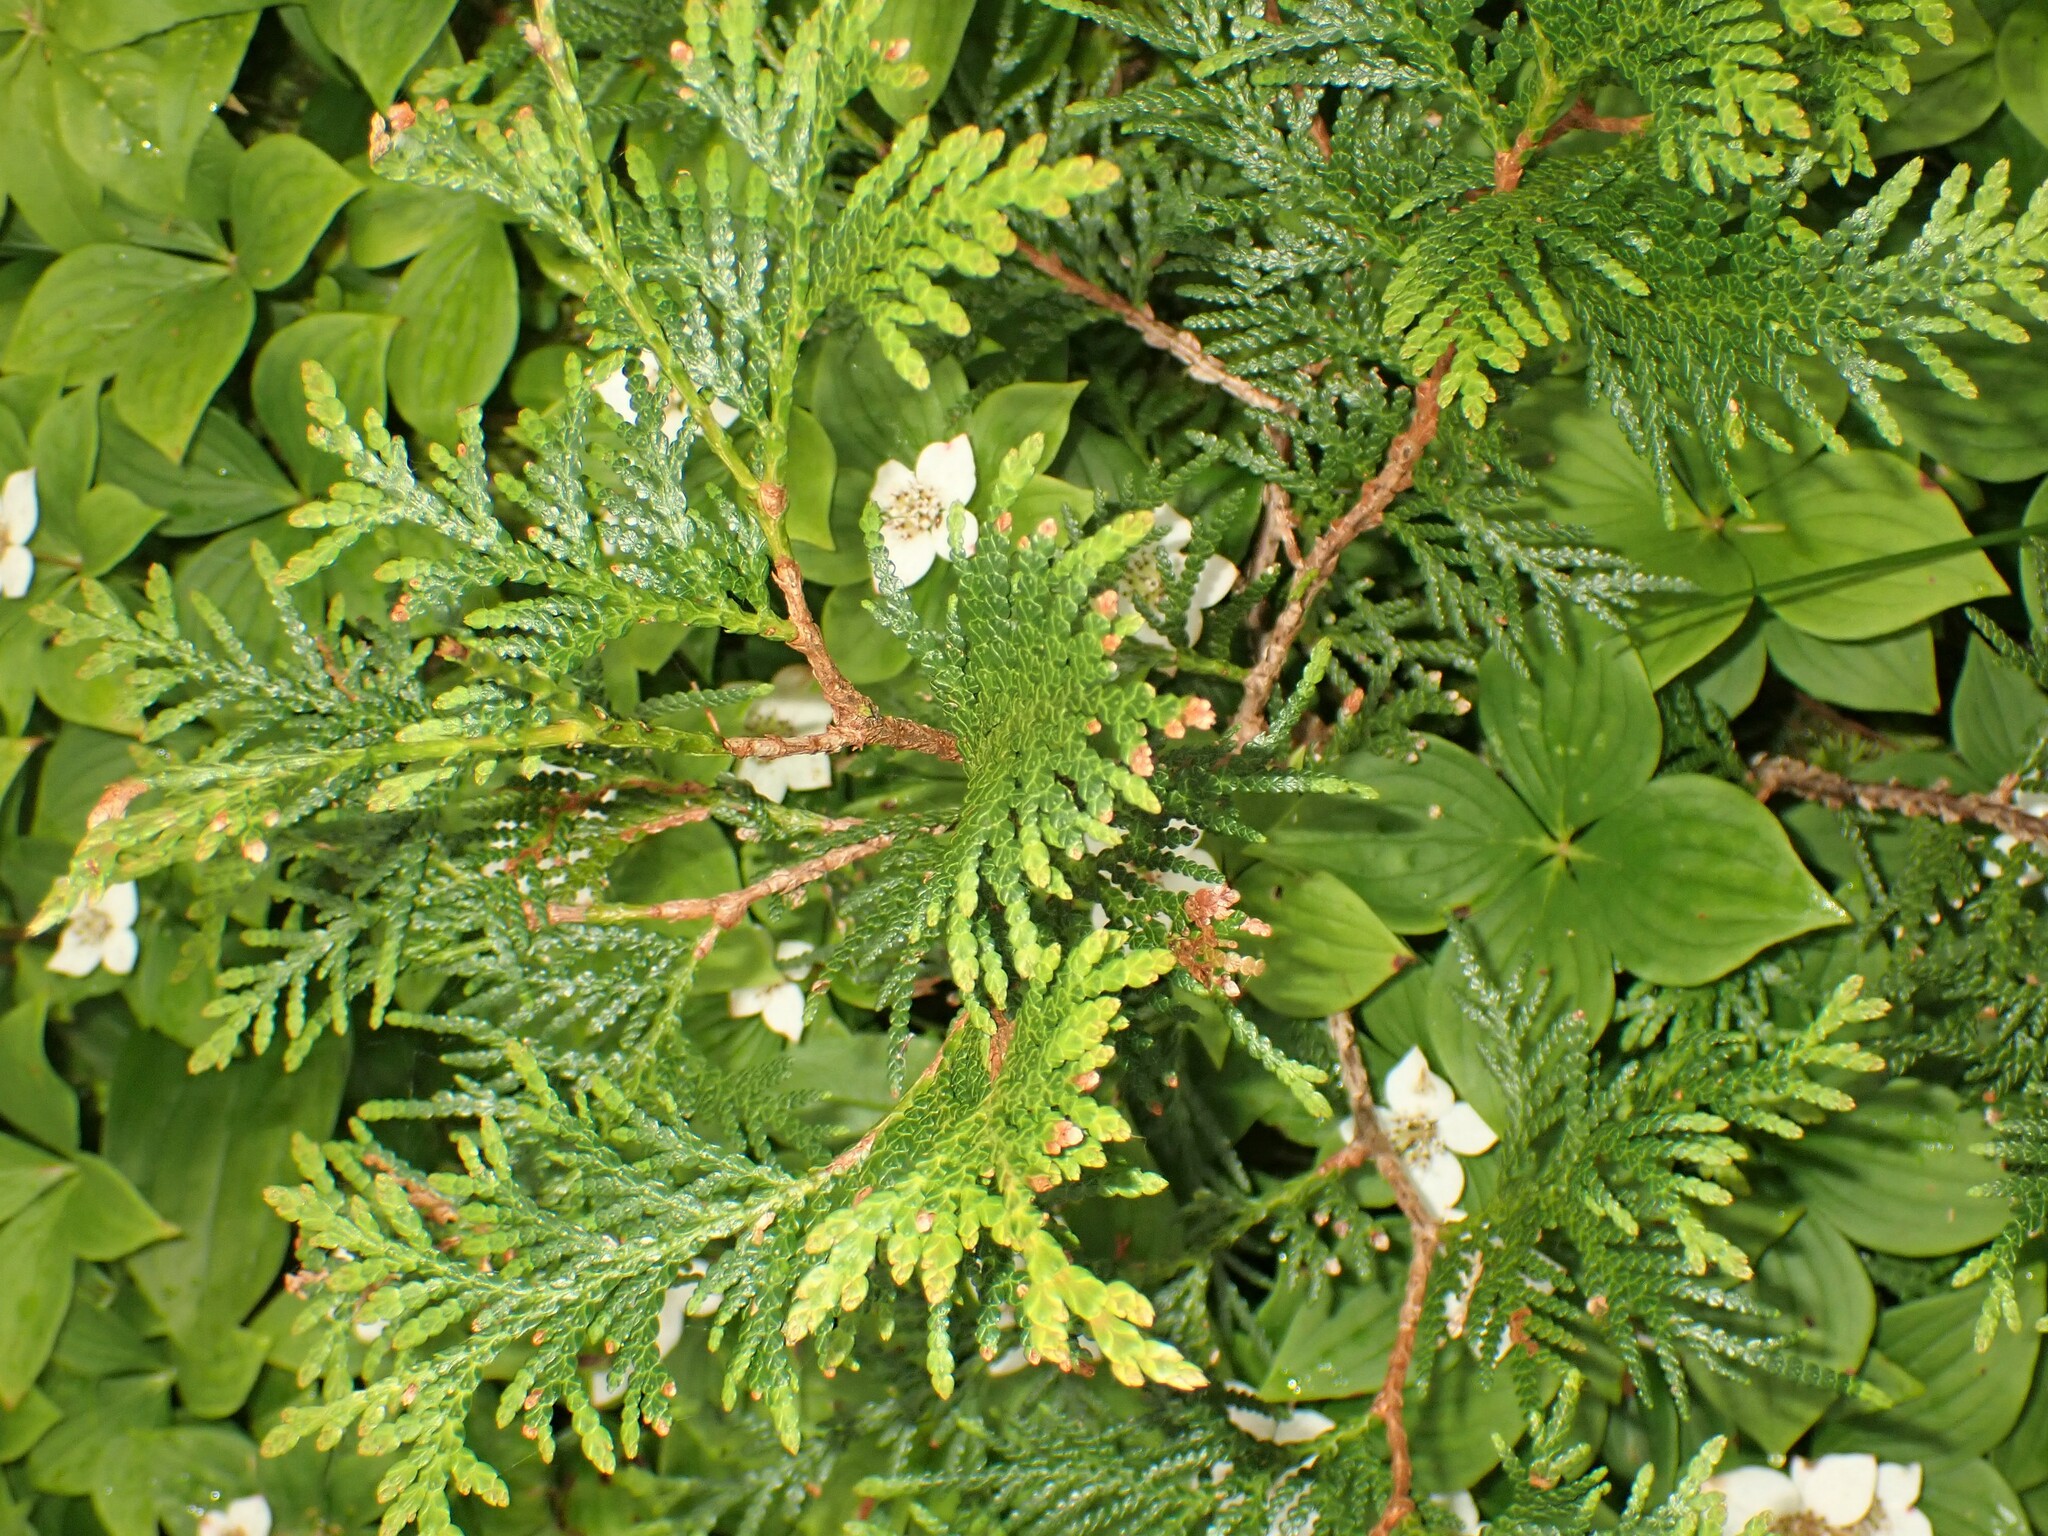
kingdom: Plantae
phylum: Tracheophyta
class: Pinopsida
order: Pinales
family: Cupressaceae
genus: Thuja
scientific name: Thuja occidentalis
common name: Northern white-cedar
